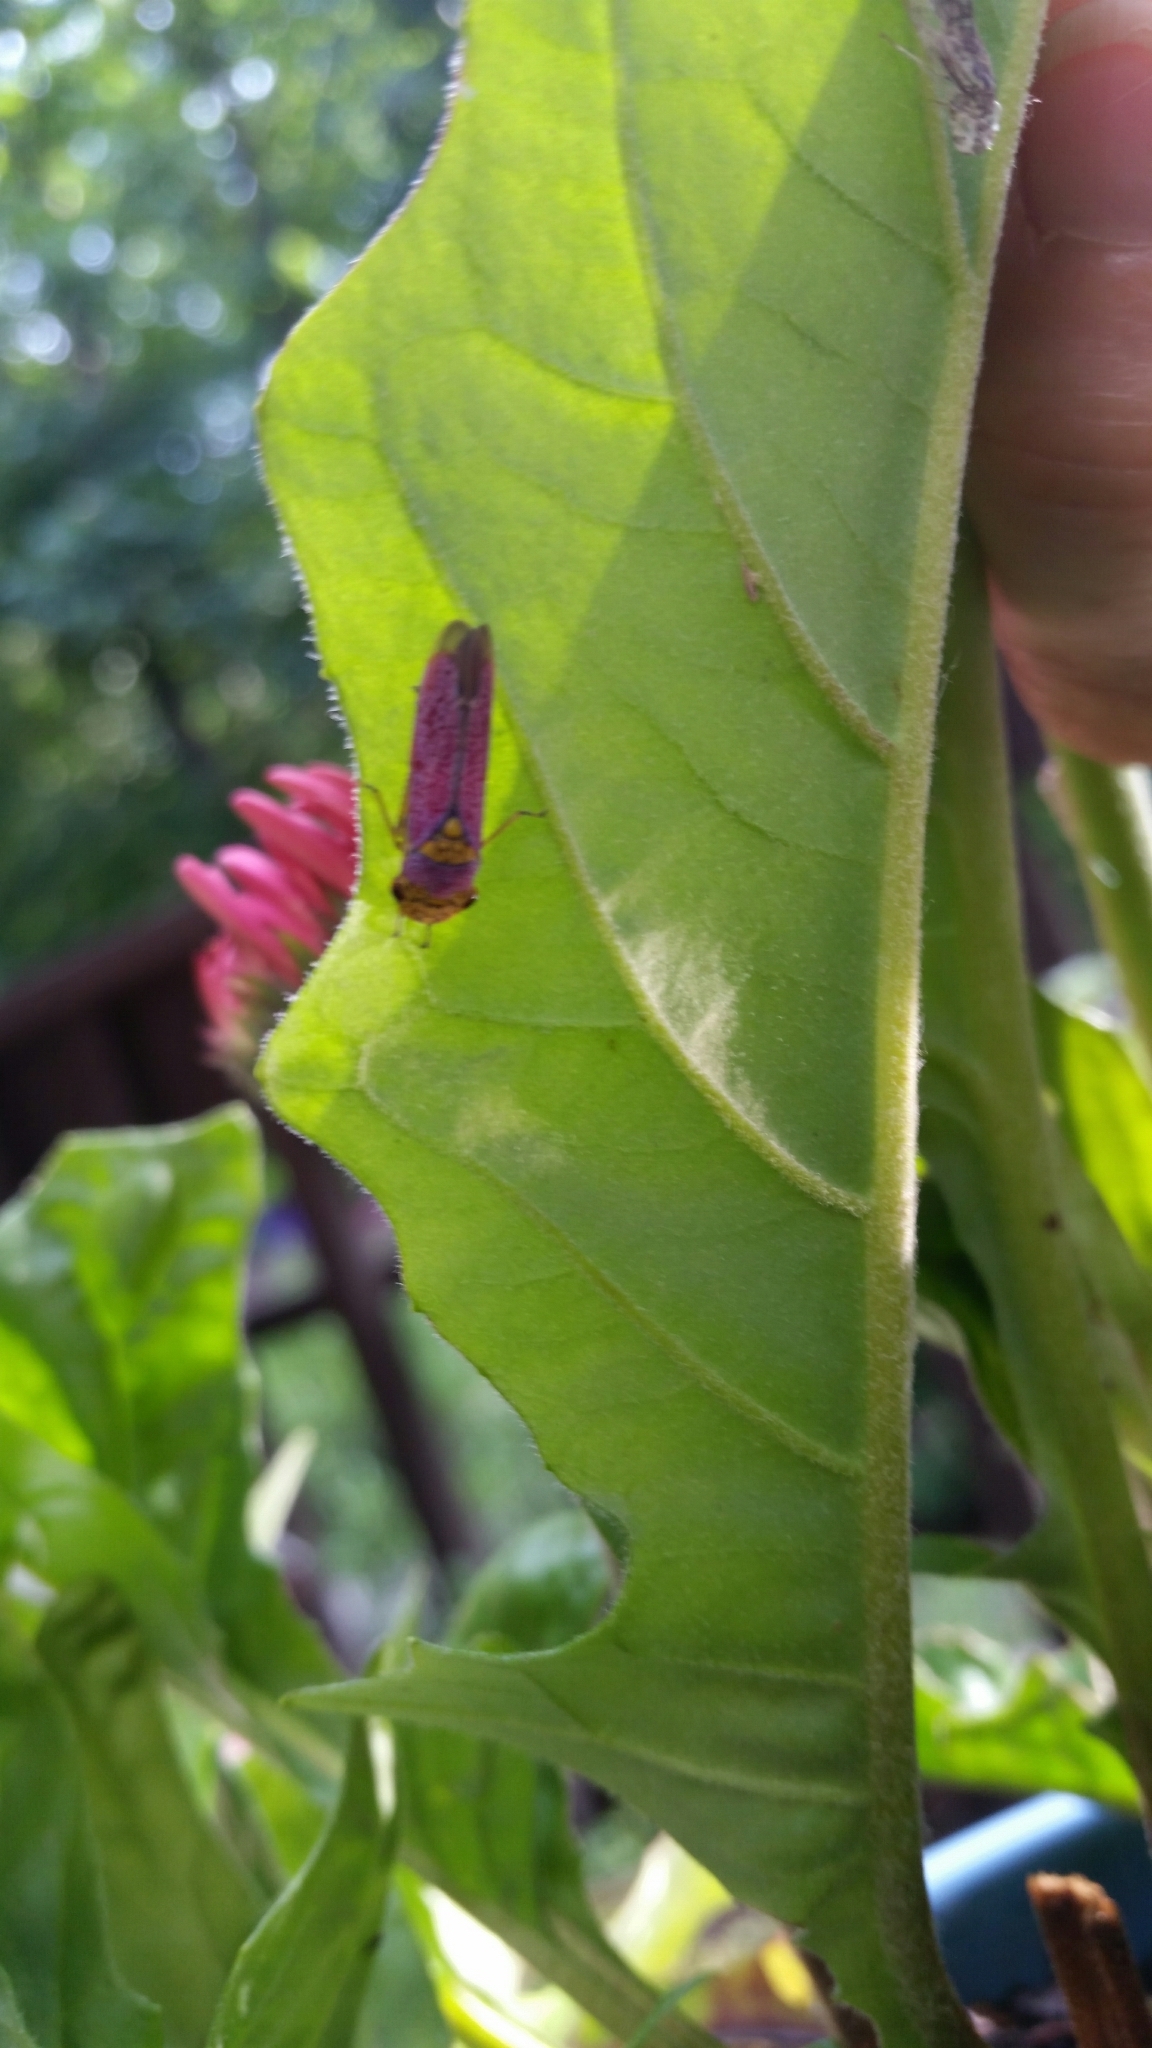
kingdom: Animalia
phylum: Arthropoda
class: Insecta
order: Hemiptera
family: Cicadellidae
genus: Oncometopia
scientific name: Oncometopia orbona
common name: Broad-headed sharpshooter
